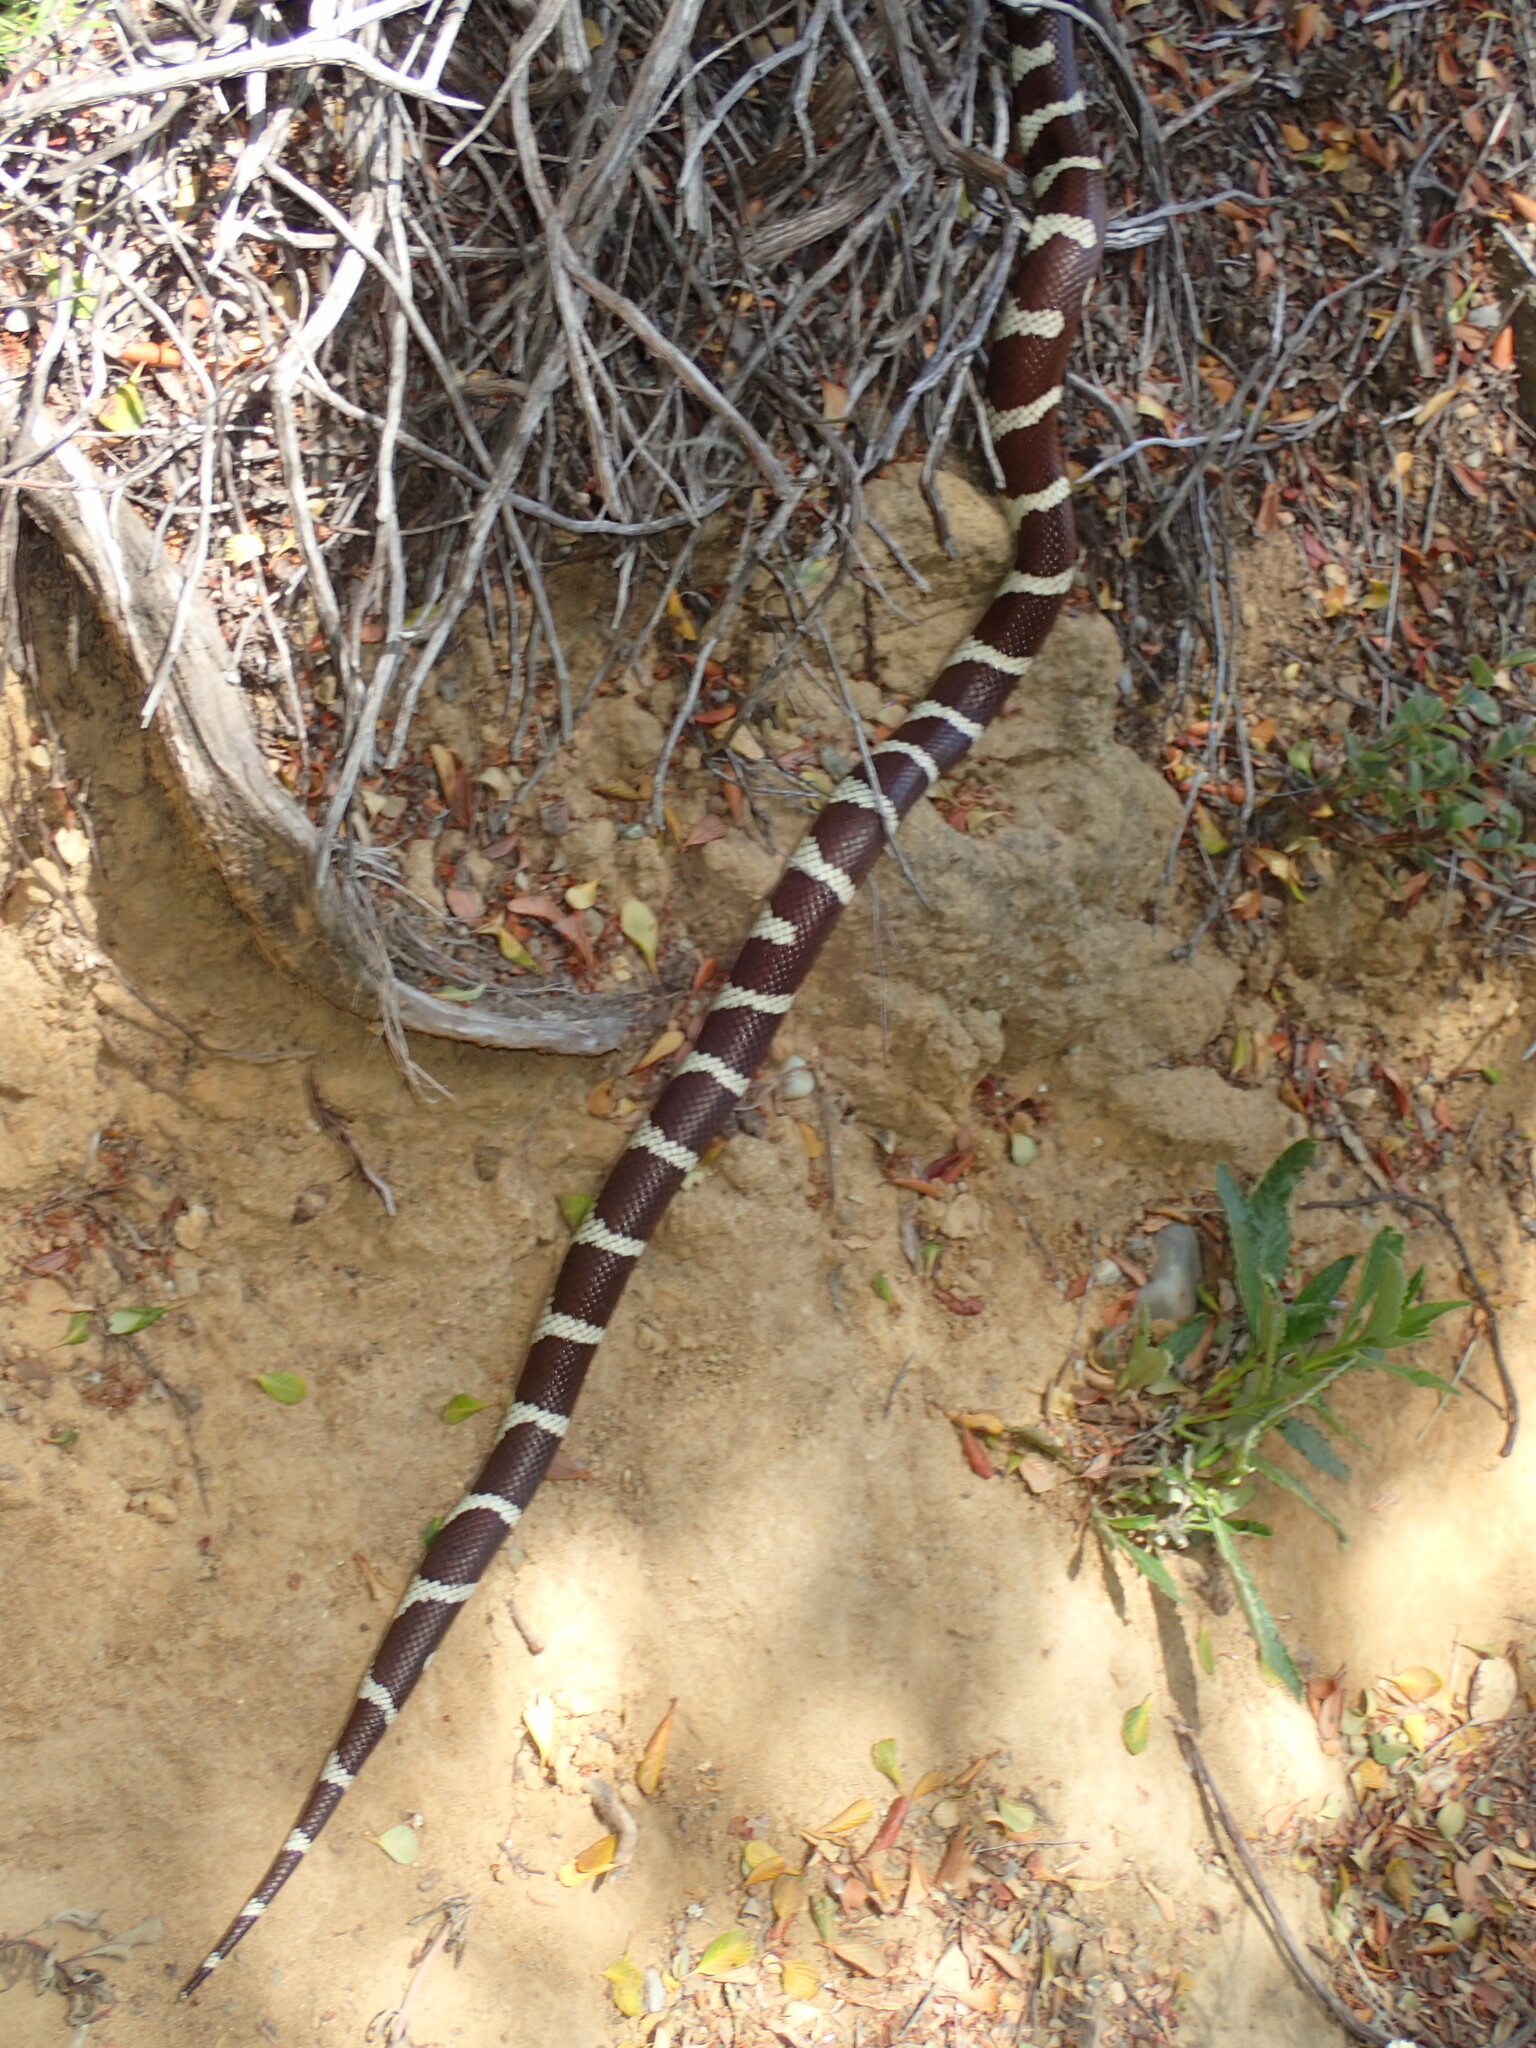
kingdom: Animalia
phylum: Chordata
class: Squamata
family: Colubridae
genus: Lampropeltis
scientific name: Lampropeltis californiae
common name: California kingsnake
